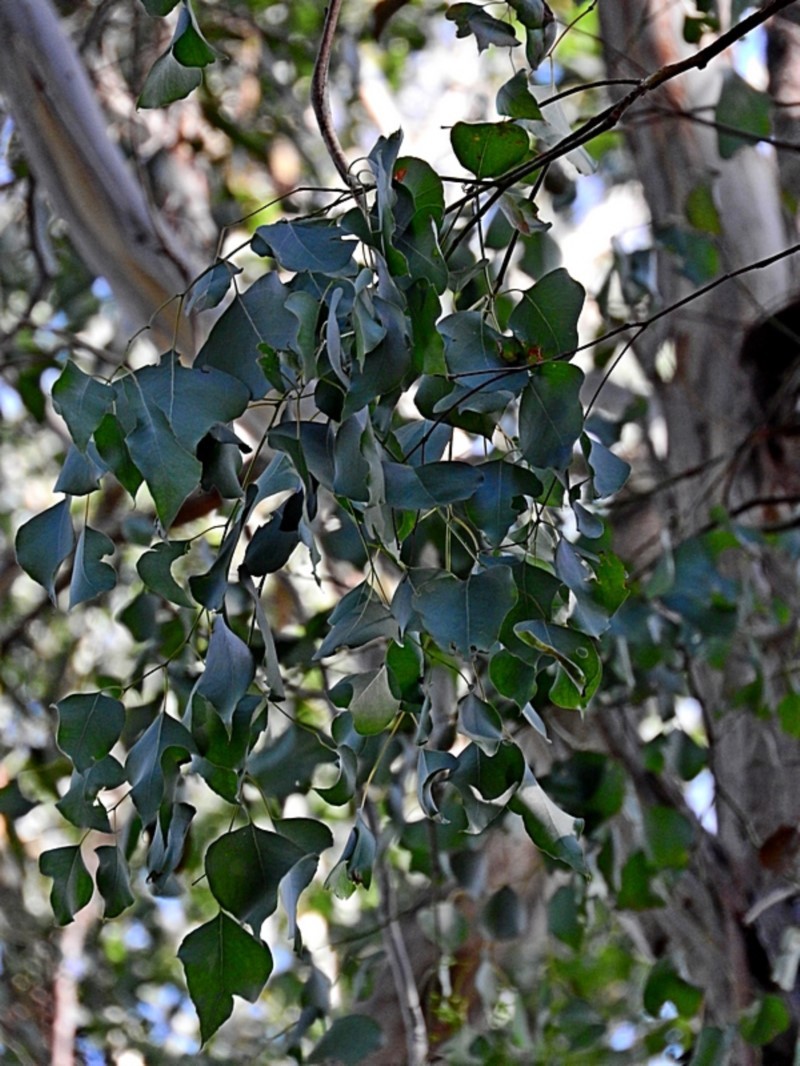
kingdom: Plantae
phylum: Tracheophyta
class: Magnoliopsida
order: Myrtales
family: Myrtaceae
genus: Eucalyptus
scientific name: Eucalyptus baueriana
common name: Round-leaf-box
